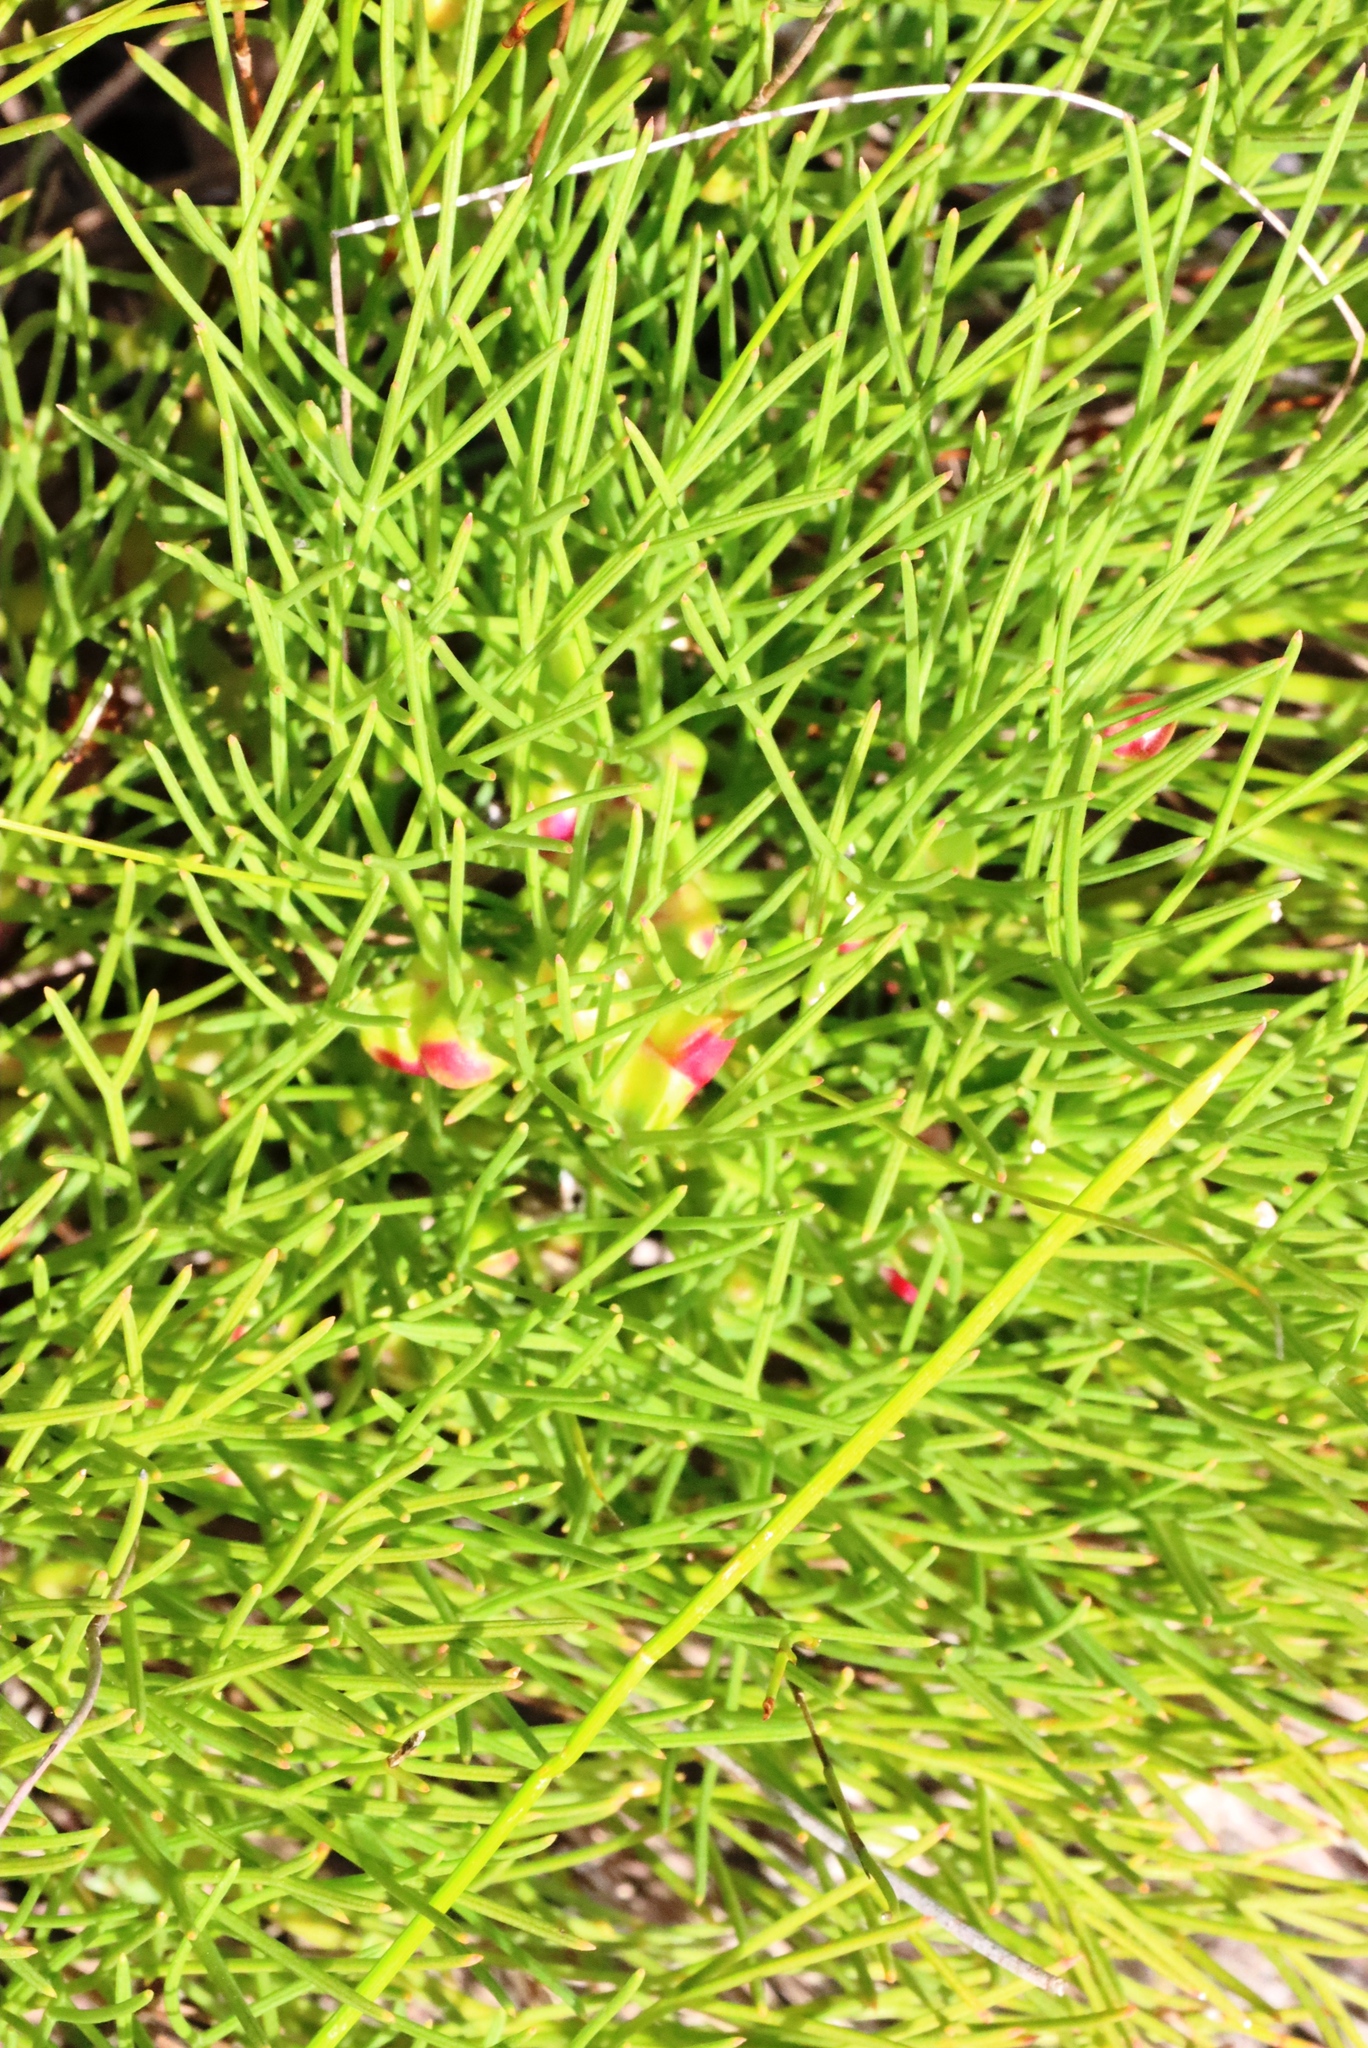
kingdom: Plantae
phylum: Tracheophyta
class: Magnoliopsida
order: Apiales
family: Apiaceae
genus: Nanobubon
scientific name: Nanobubon strictum
